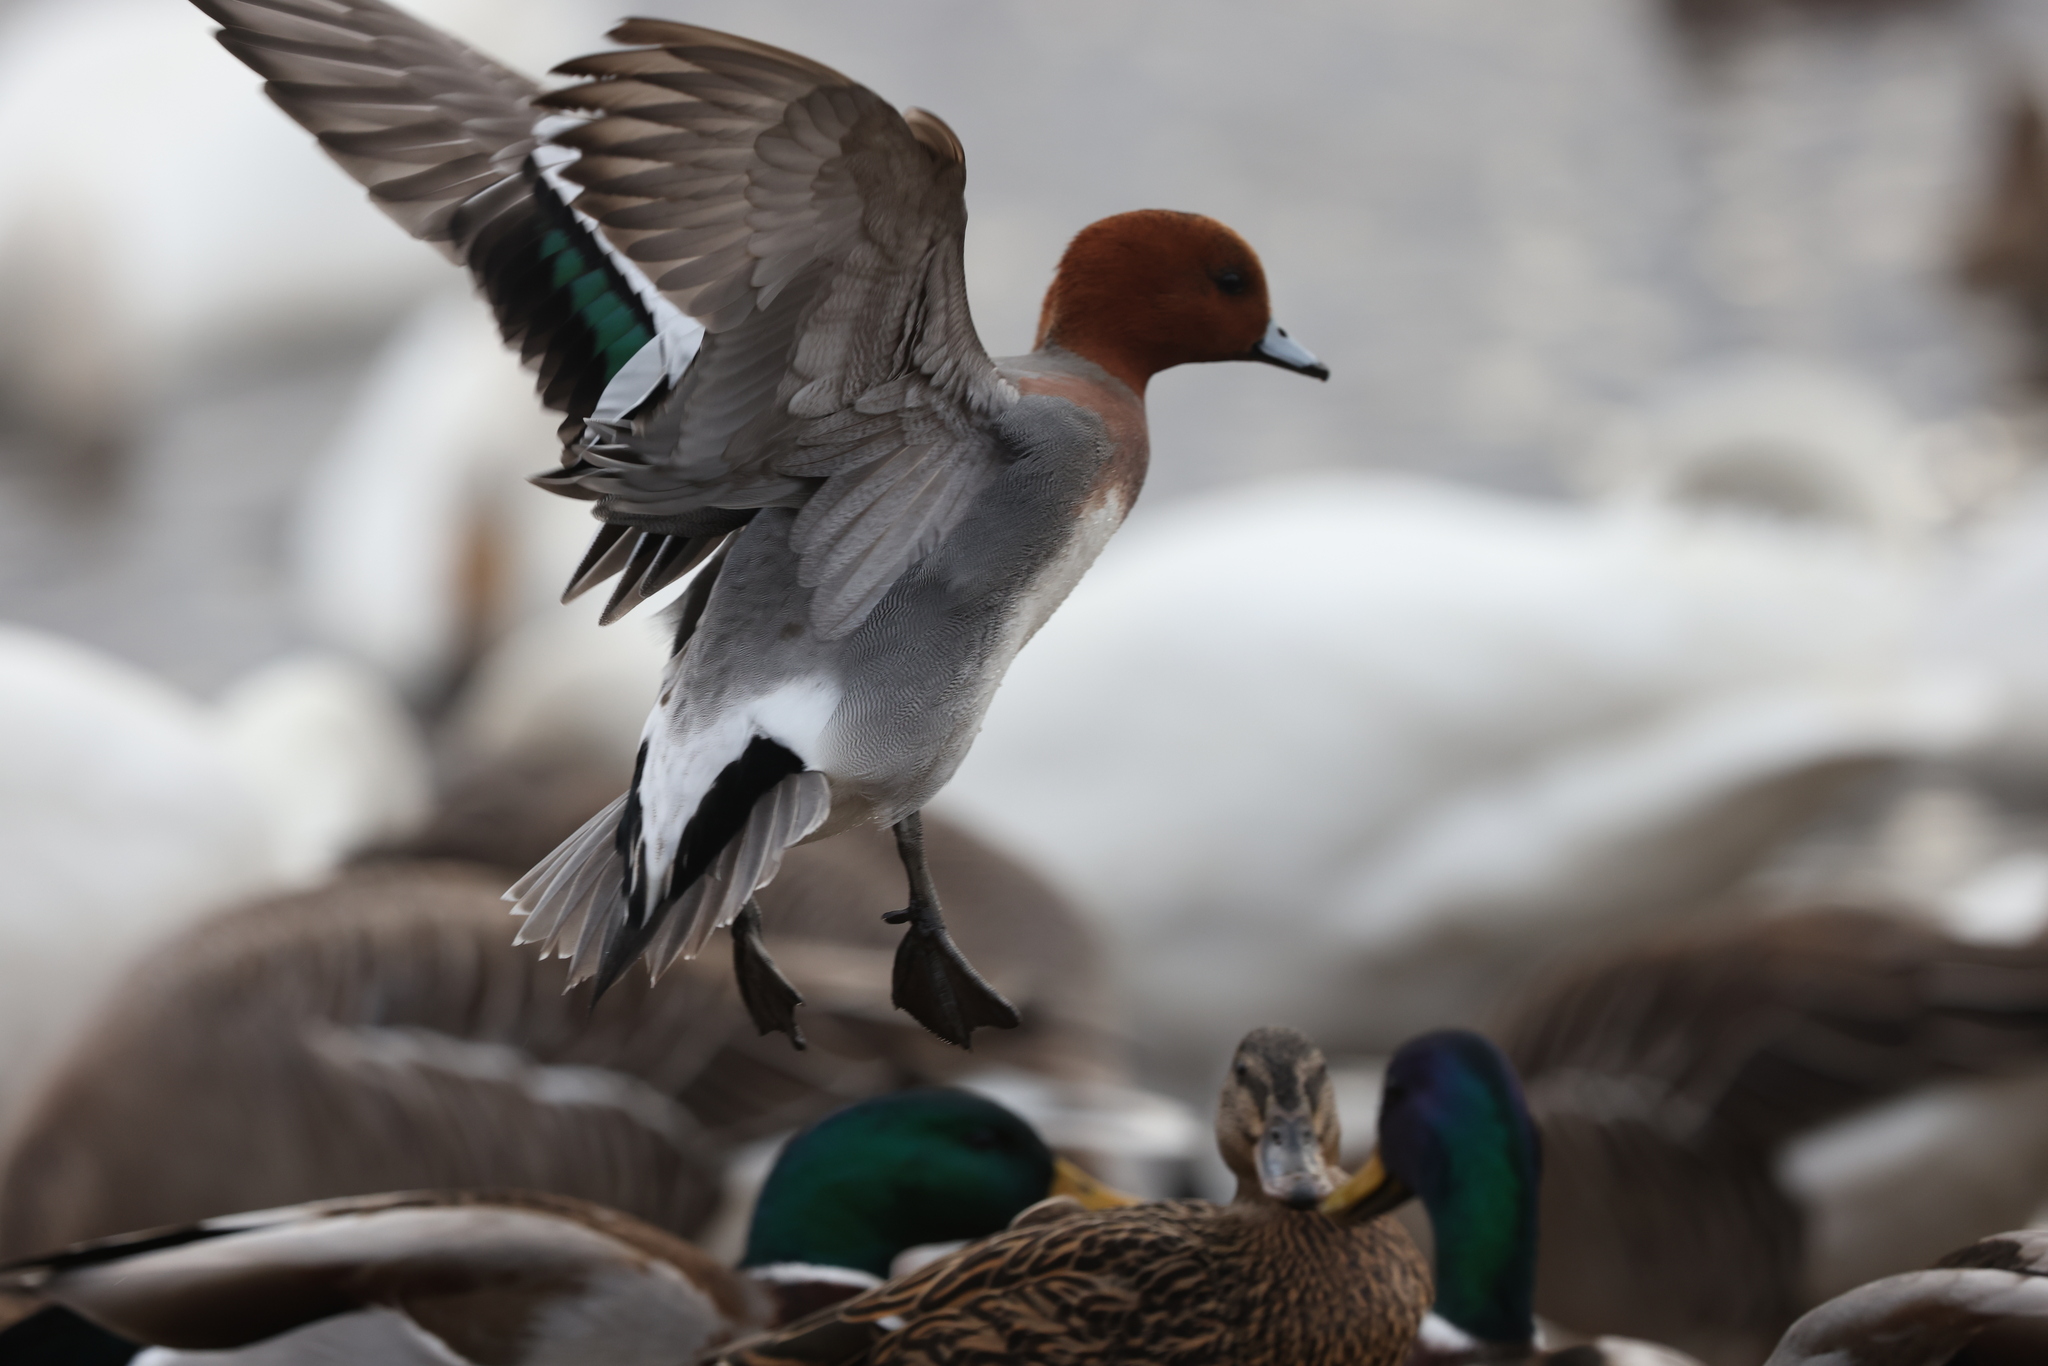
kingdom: Animalia
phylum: Chordata
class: Aves
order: Anseriformes
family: Anatidae
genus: Mareca
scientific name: Mareca penelope
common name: Eurasian wigeon
